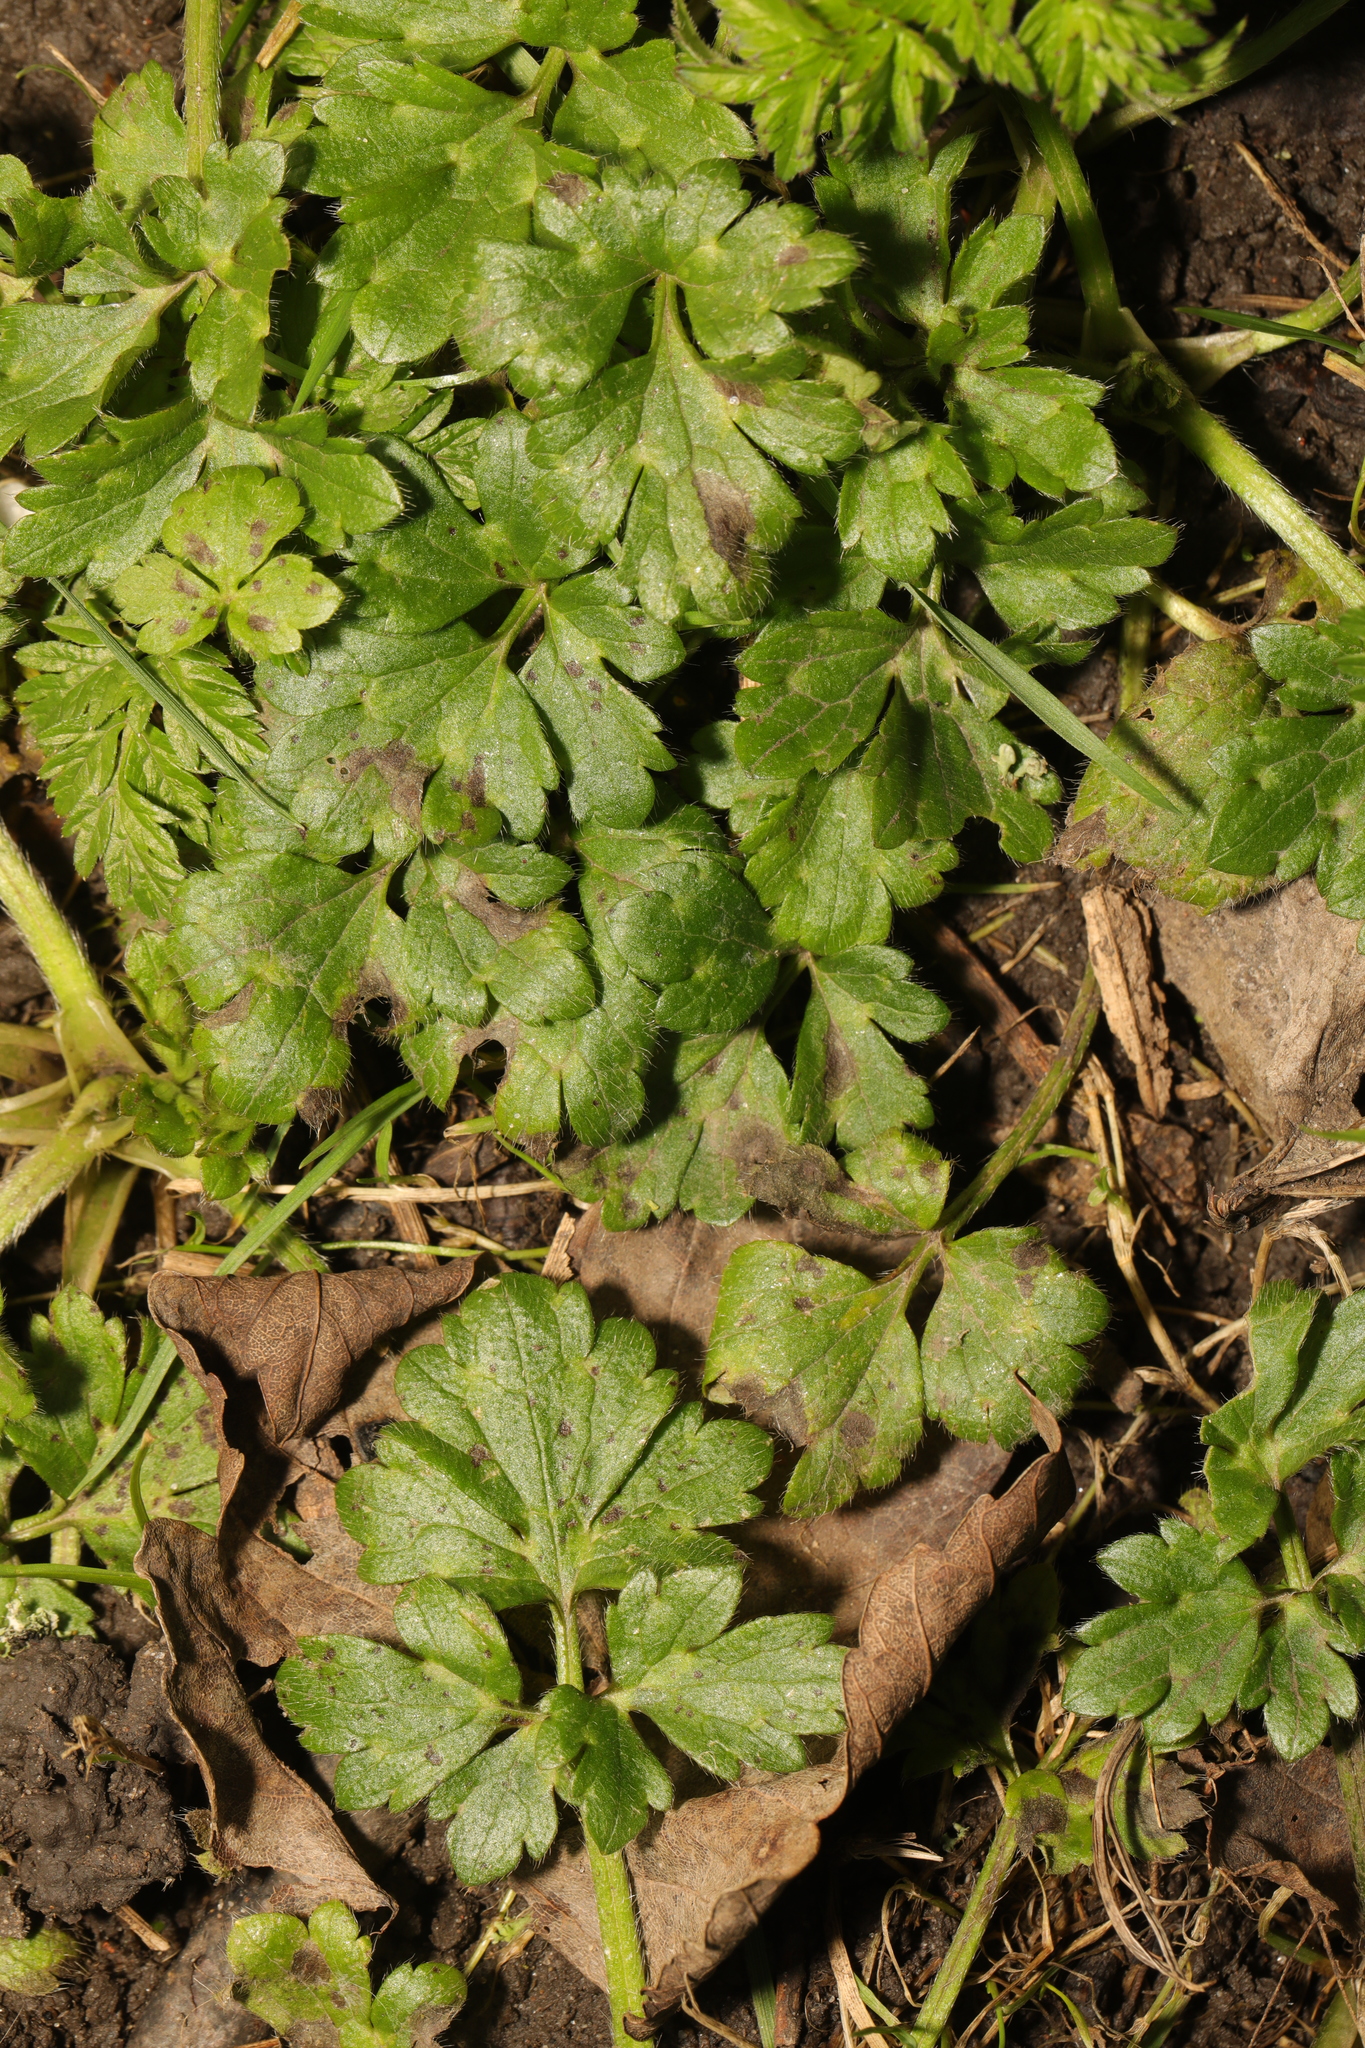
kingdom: Plantae
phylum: Tracheophyta
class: Magnoliopsida
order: Ranunculales
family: Ranunculaceae
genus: Ranunculus
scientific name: Ranunculus repens
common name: Creeping buttercup
